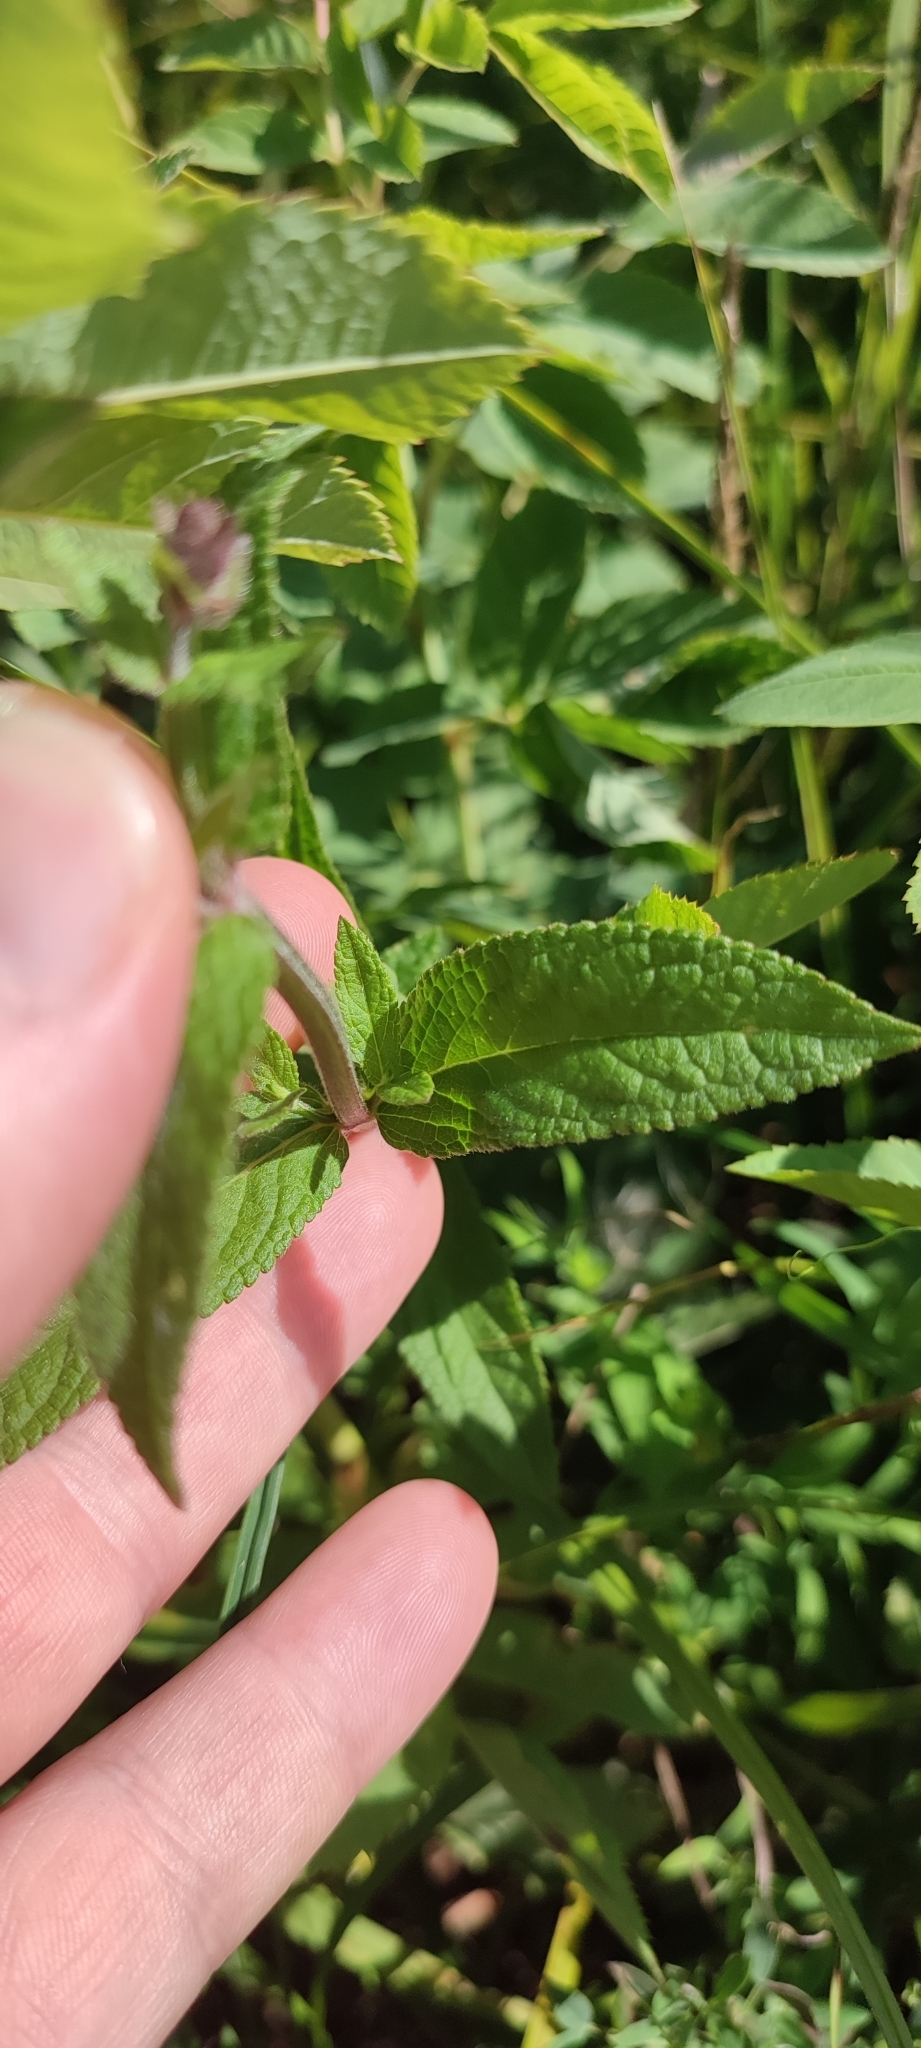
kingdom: Plantae
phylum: Tracheophyta
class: Magnoliopsida
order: Lamiales
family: Lamiaceae
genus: Stachys
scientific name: Stachys palustris
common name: Marsh woundwort
